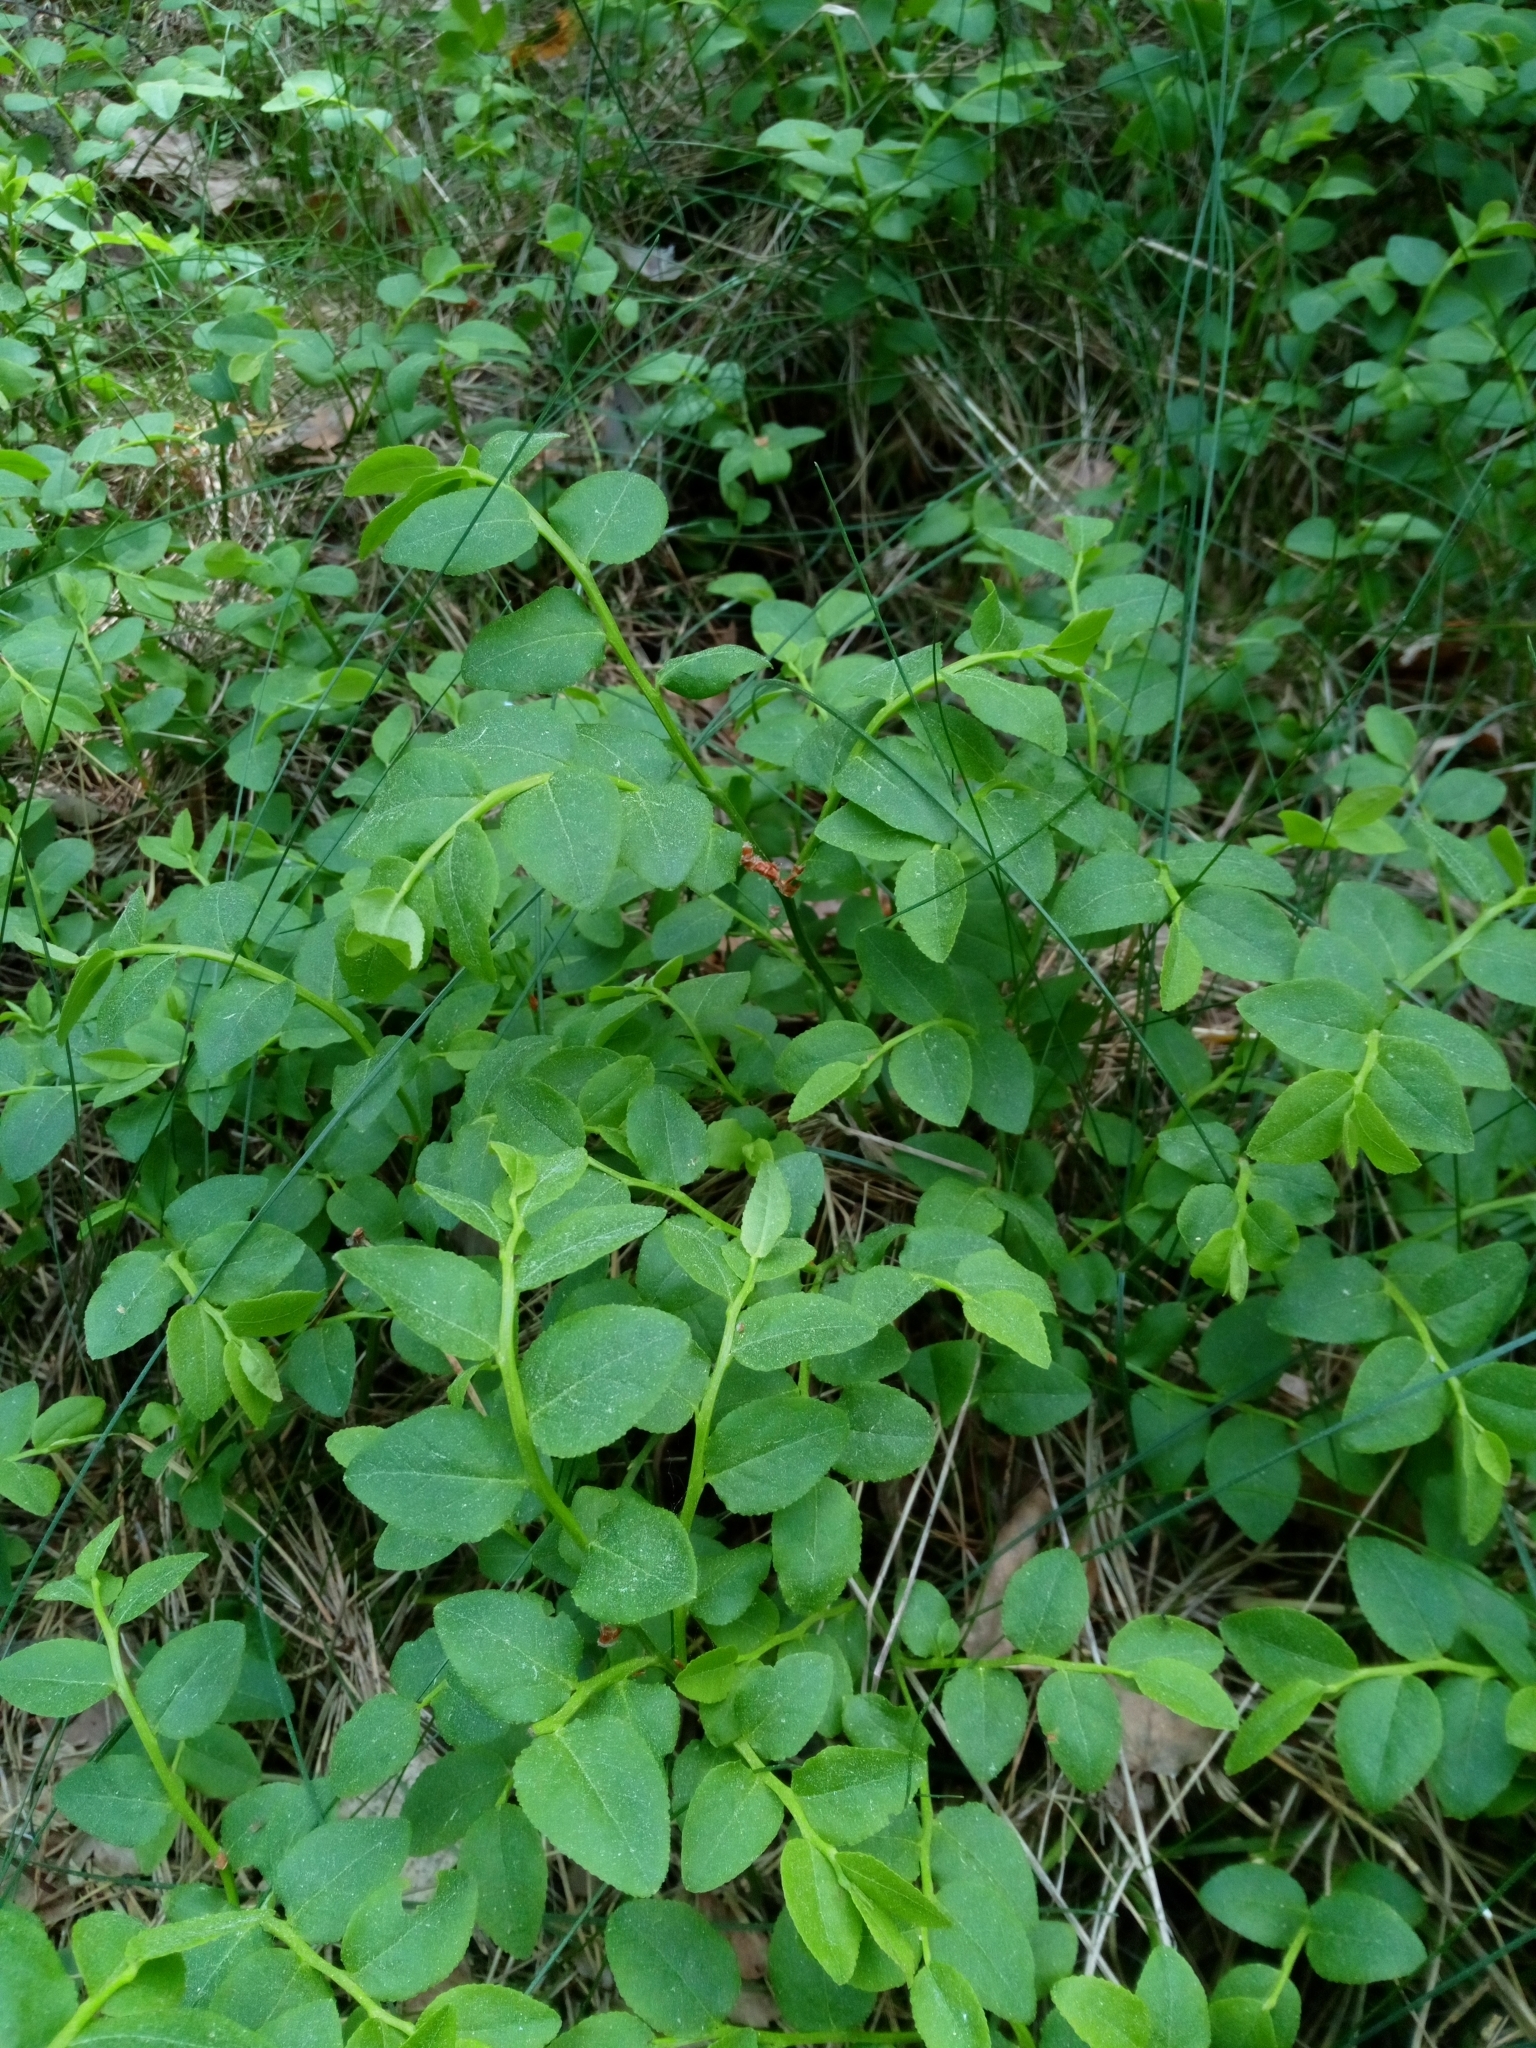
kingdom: Plantae
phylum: Tracheophyta
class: Magnoliopsida
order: Ericales
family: Ericaceae
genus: Vaccinium
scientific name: Vaccinium myrtillus
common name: Bilberry
